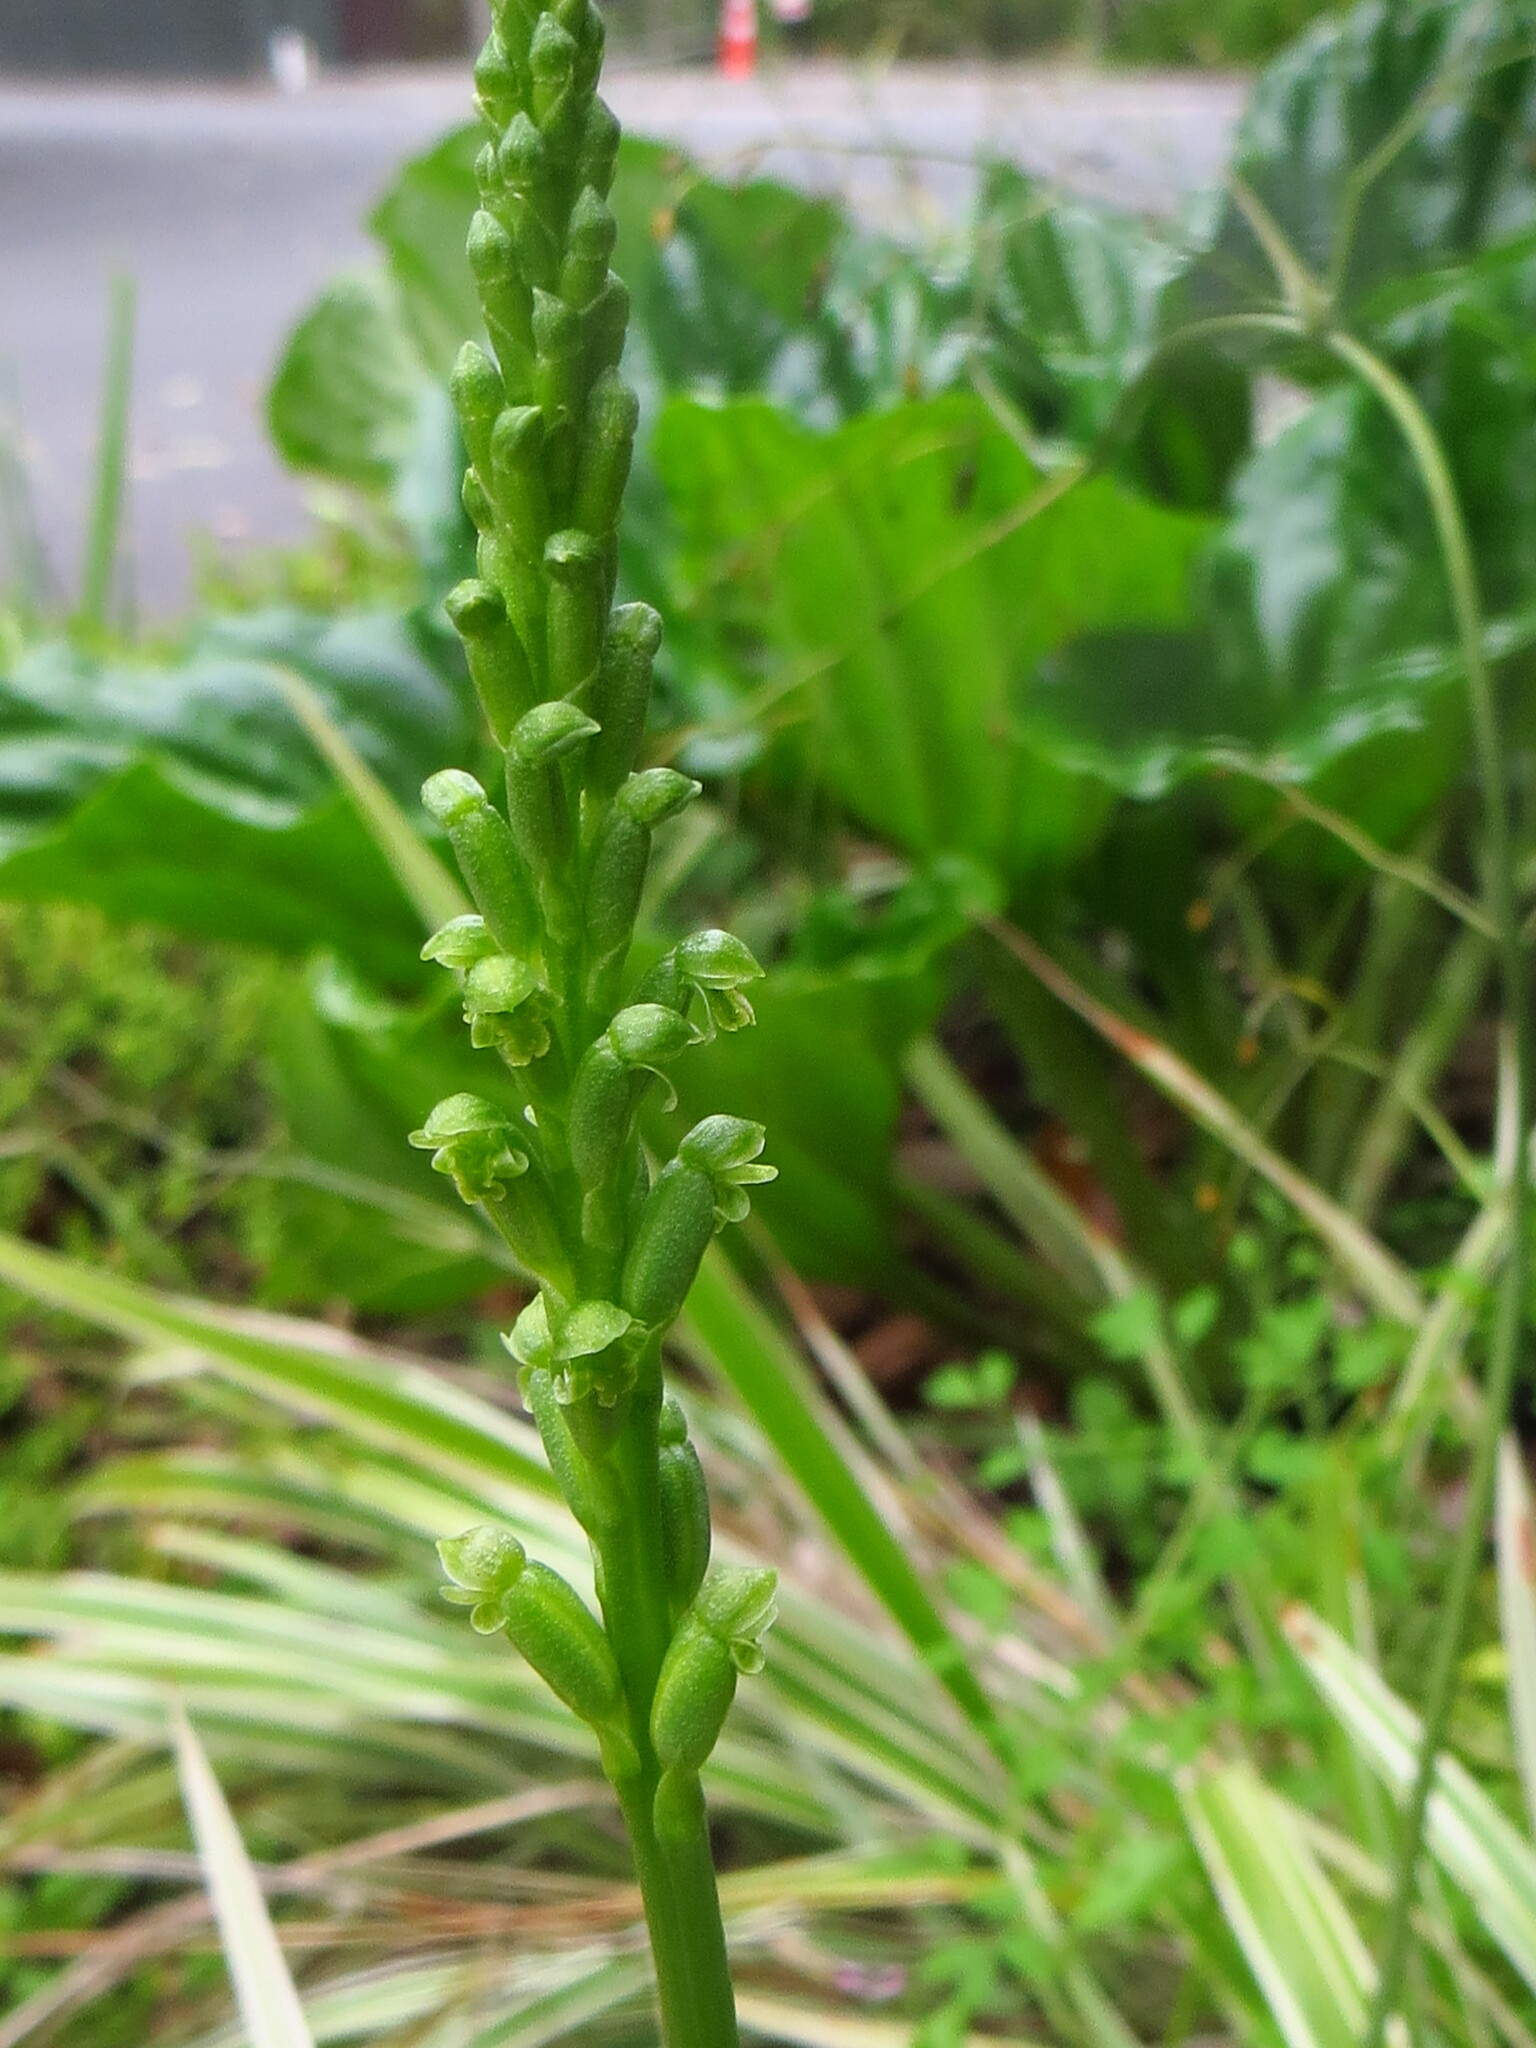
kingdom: Plantae
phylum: Tracheophyta
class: Liliopsida
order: Asparagales
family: Orchidaceae
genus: Microtis
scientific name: Microtis unifolia
